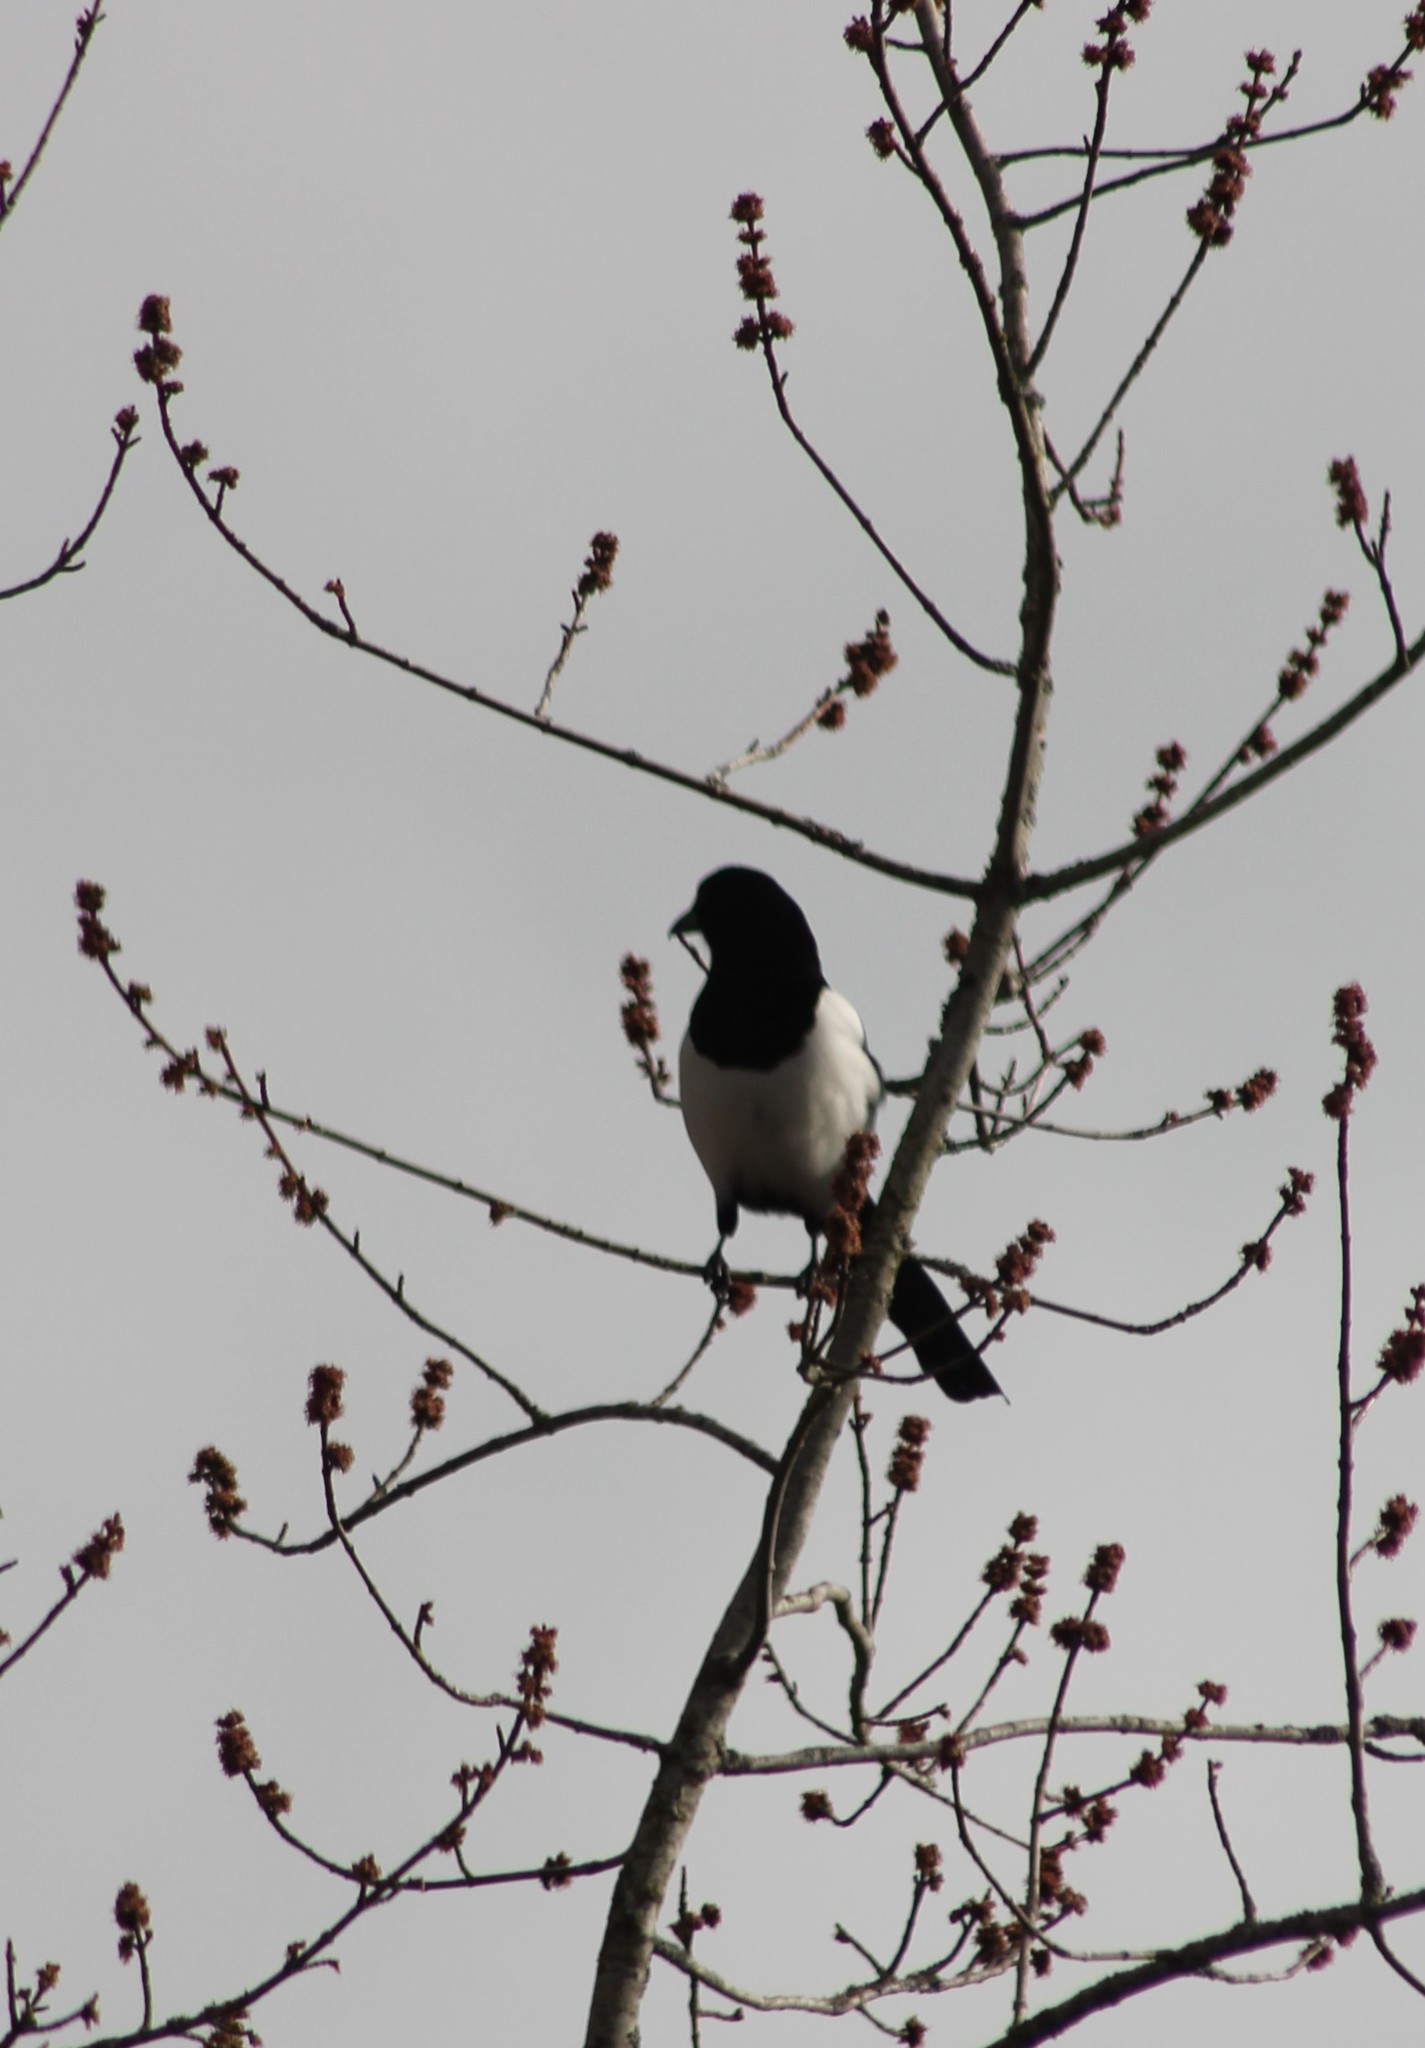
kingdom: Animalia
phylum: Chordata
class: Aves
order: Passeriformes
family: Corvidae
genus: Pica
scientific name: Pica pica
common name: Eurasian magpie
